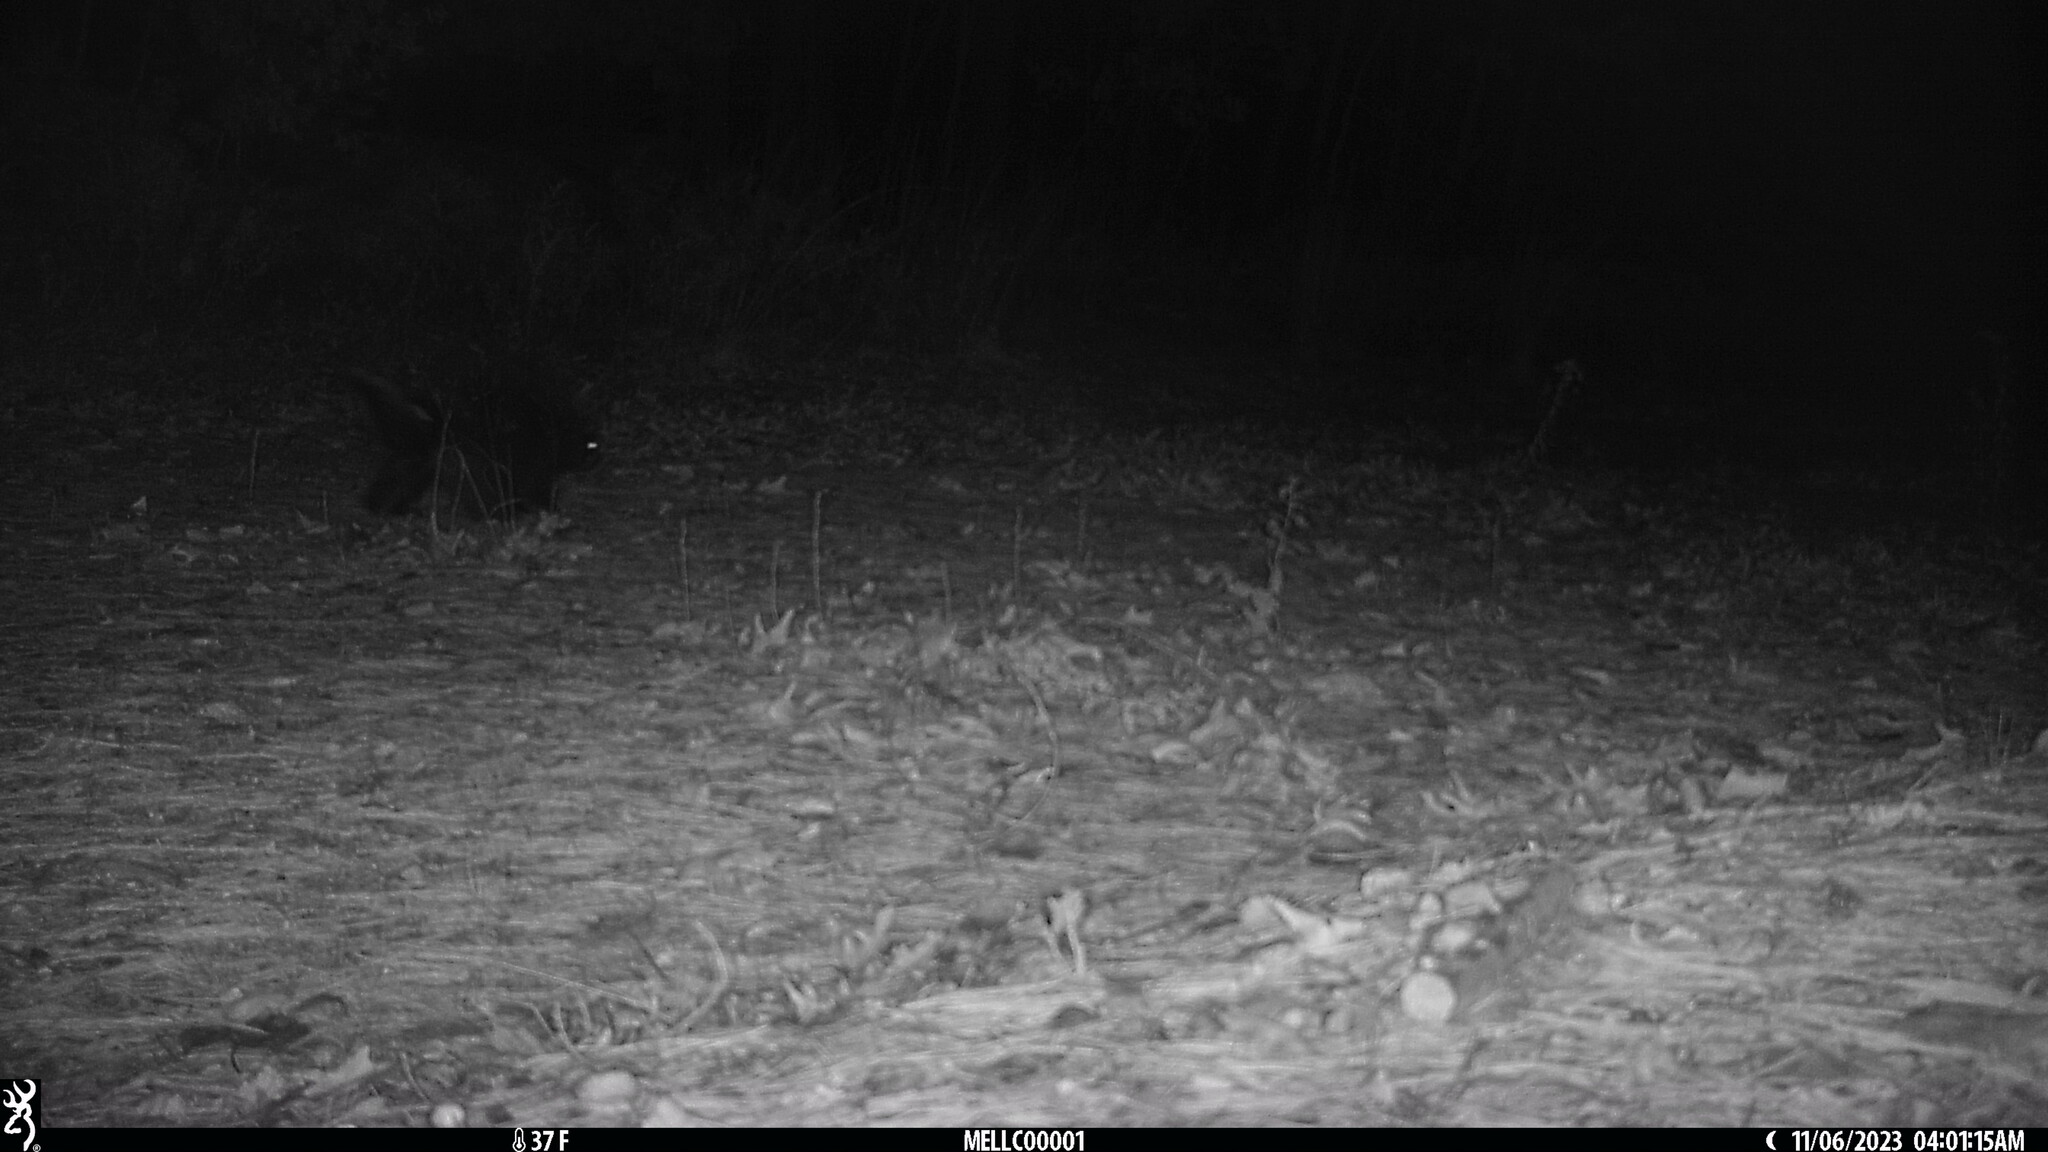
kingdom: Animalia
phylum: Chordata
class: Mammalia
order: Rodentia
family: Erethizontidae
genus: Erethizon
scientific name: Erethizon dorsatus
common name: North american porcupine
